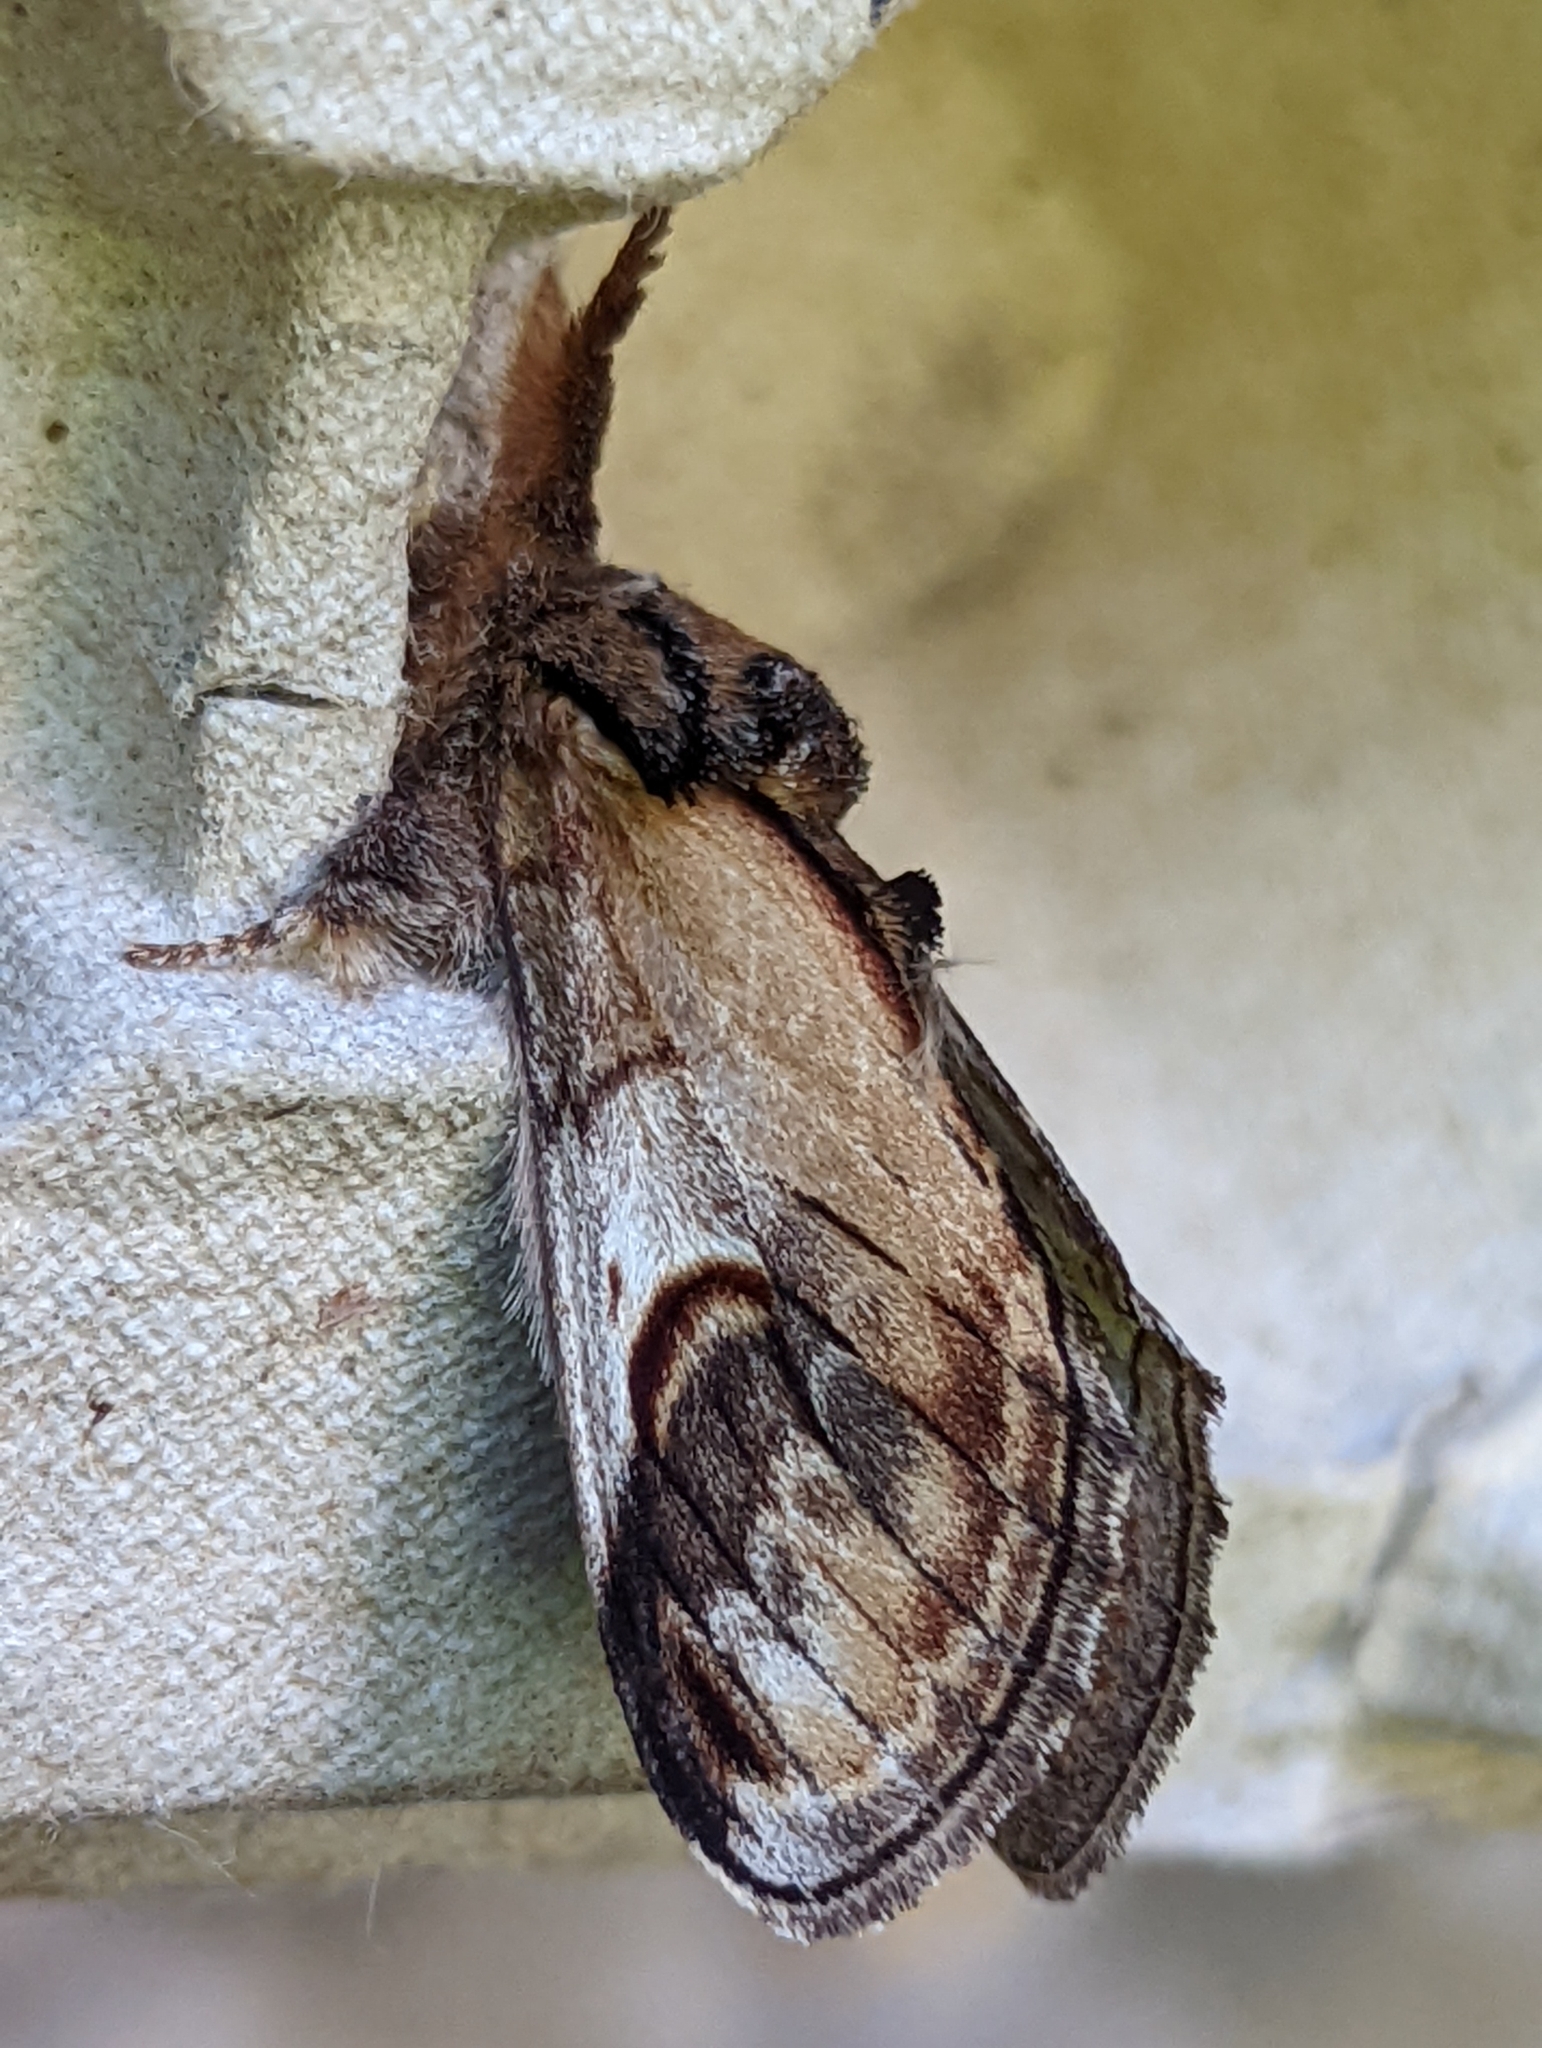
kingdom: Animalia
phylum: Arthropoda
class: Insecta
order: Lepidoptera
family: Notodontidae
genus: Notodonta
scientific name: Notodonta ziczac
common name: Pebble prominent
